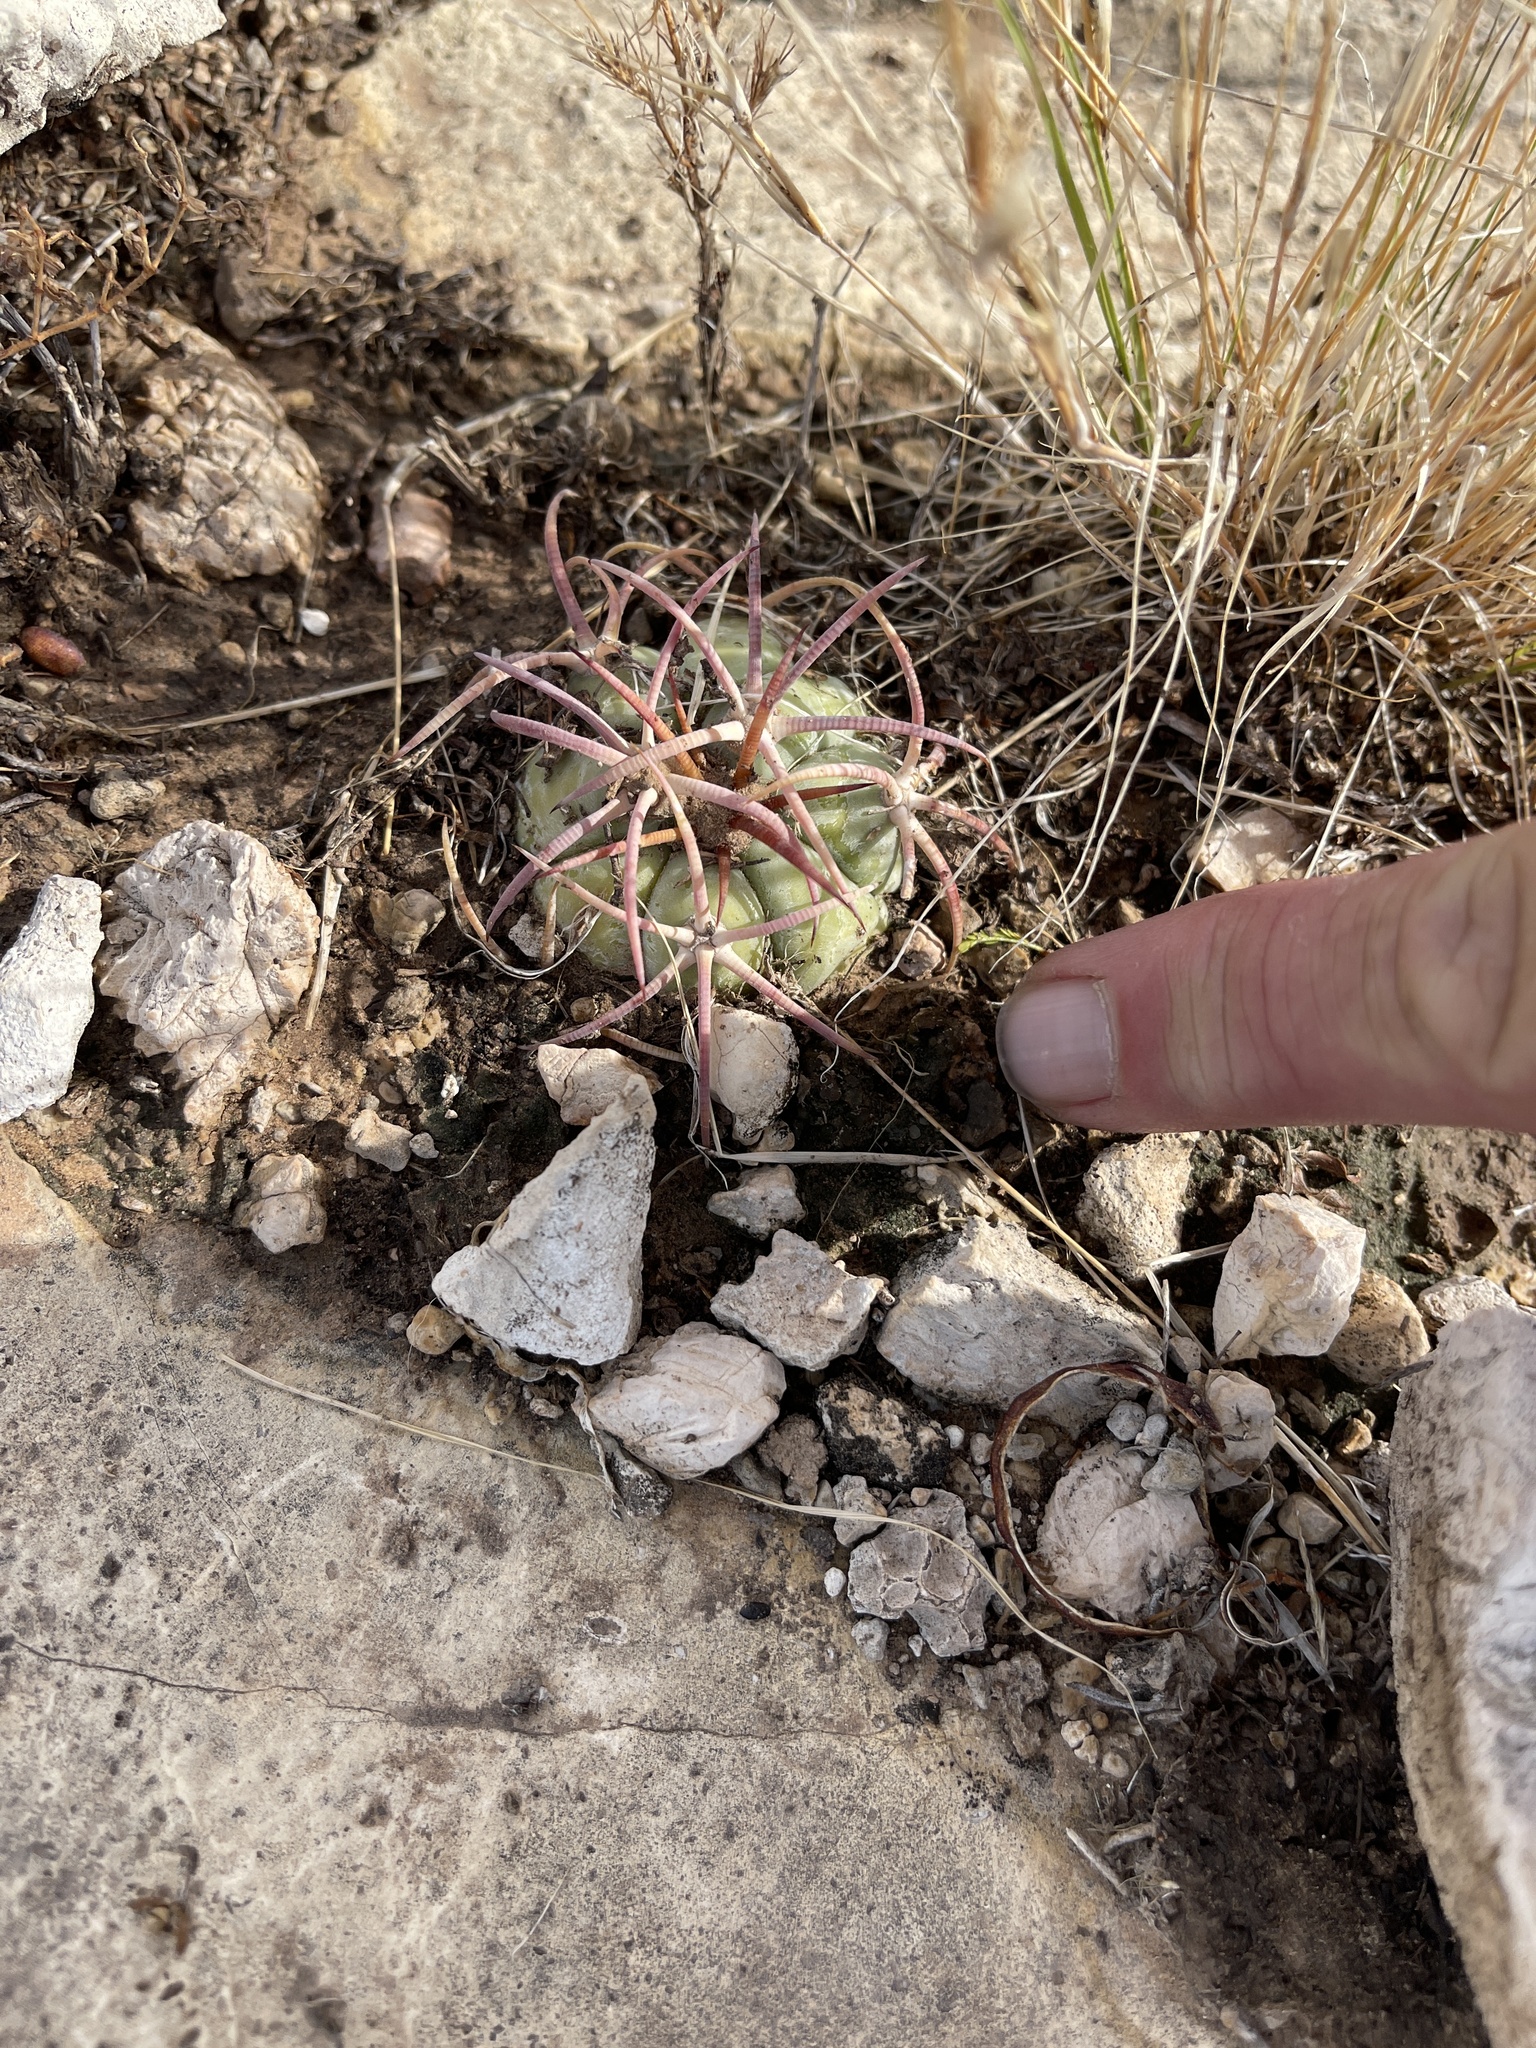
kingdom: Plantae
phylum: Tracheophyta
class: Magnoliopsida
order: Caryophyllales
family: Cactaceae
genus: Echinocactus
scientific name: Echinocactus horizonthalonius
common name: Devilshead
